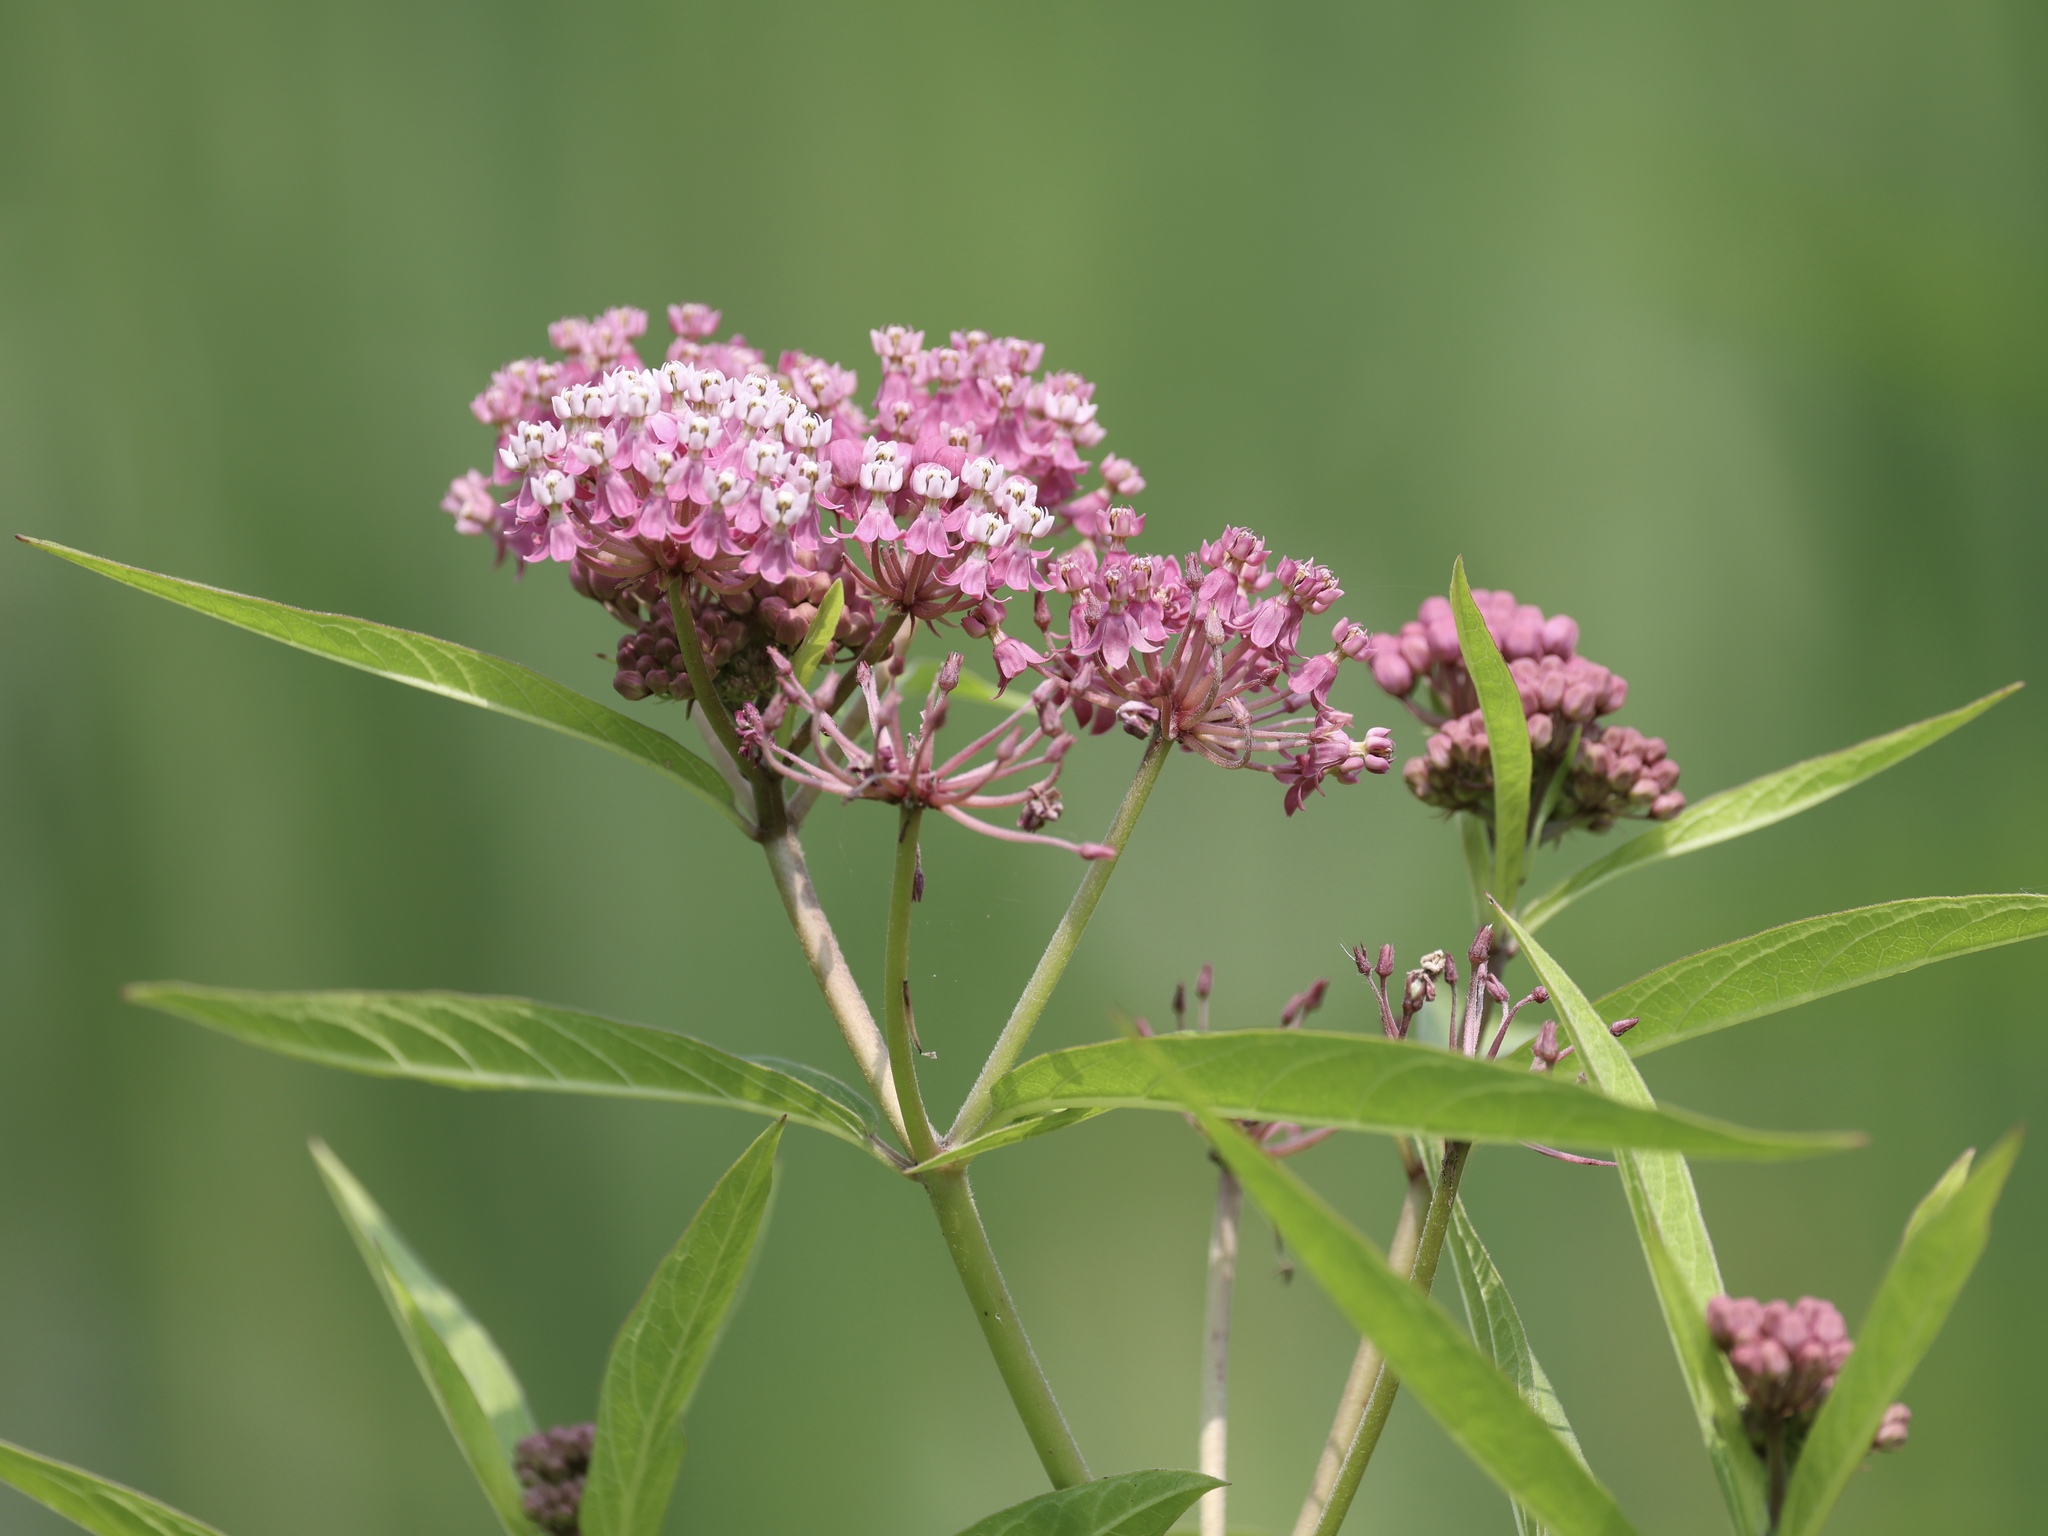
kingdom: Plantae
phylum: Tracheophyta
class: Magnoliopsida
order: Gentianales
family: Apocynaceae
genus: Asclepias
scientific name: Asclepias incarnata
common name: Swamp milkweed
